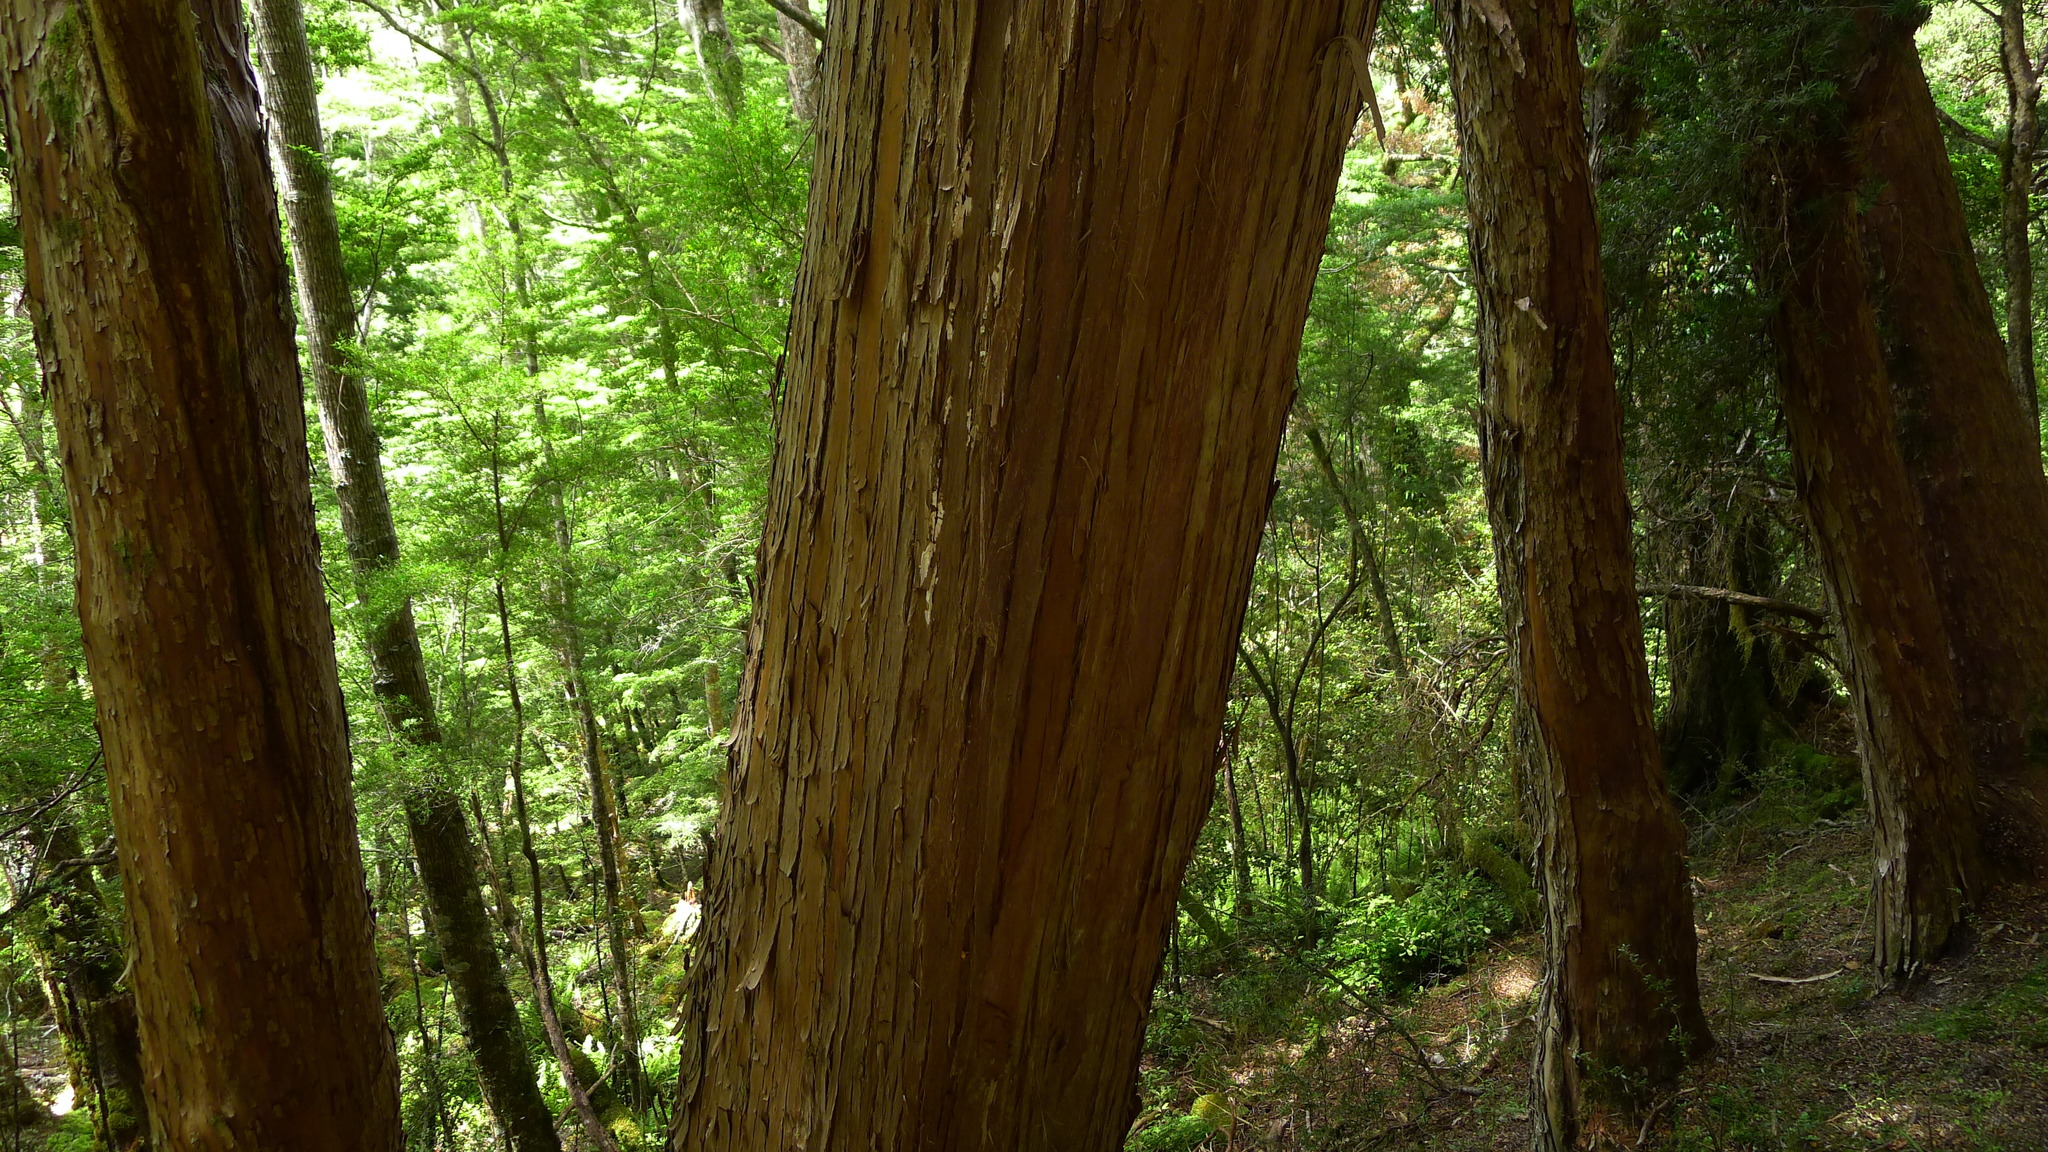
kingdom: Plantae
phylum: Tracheophyta
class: Pinopsida
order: Pinales
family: Podocarpaceae
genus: Podocarpus
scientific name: Podocarpus laetus
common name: Hall's totara
